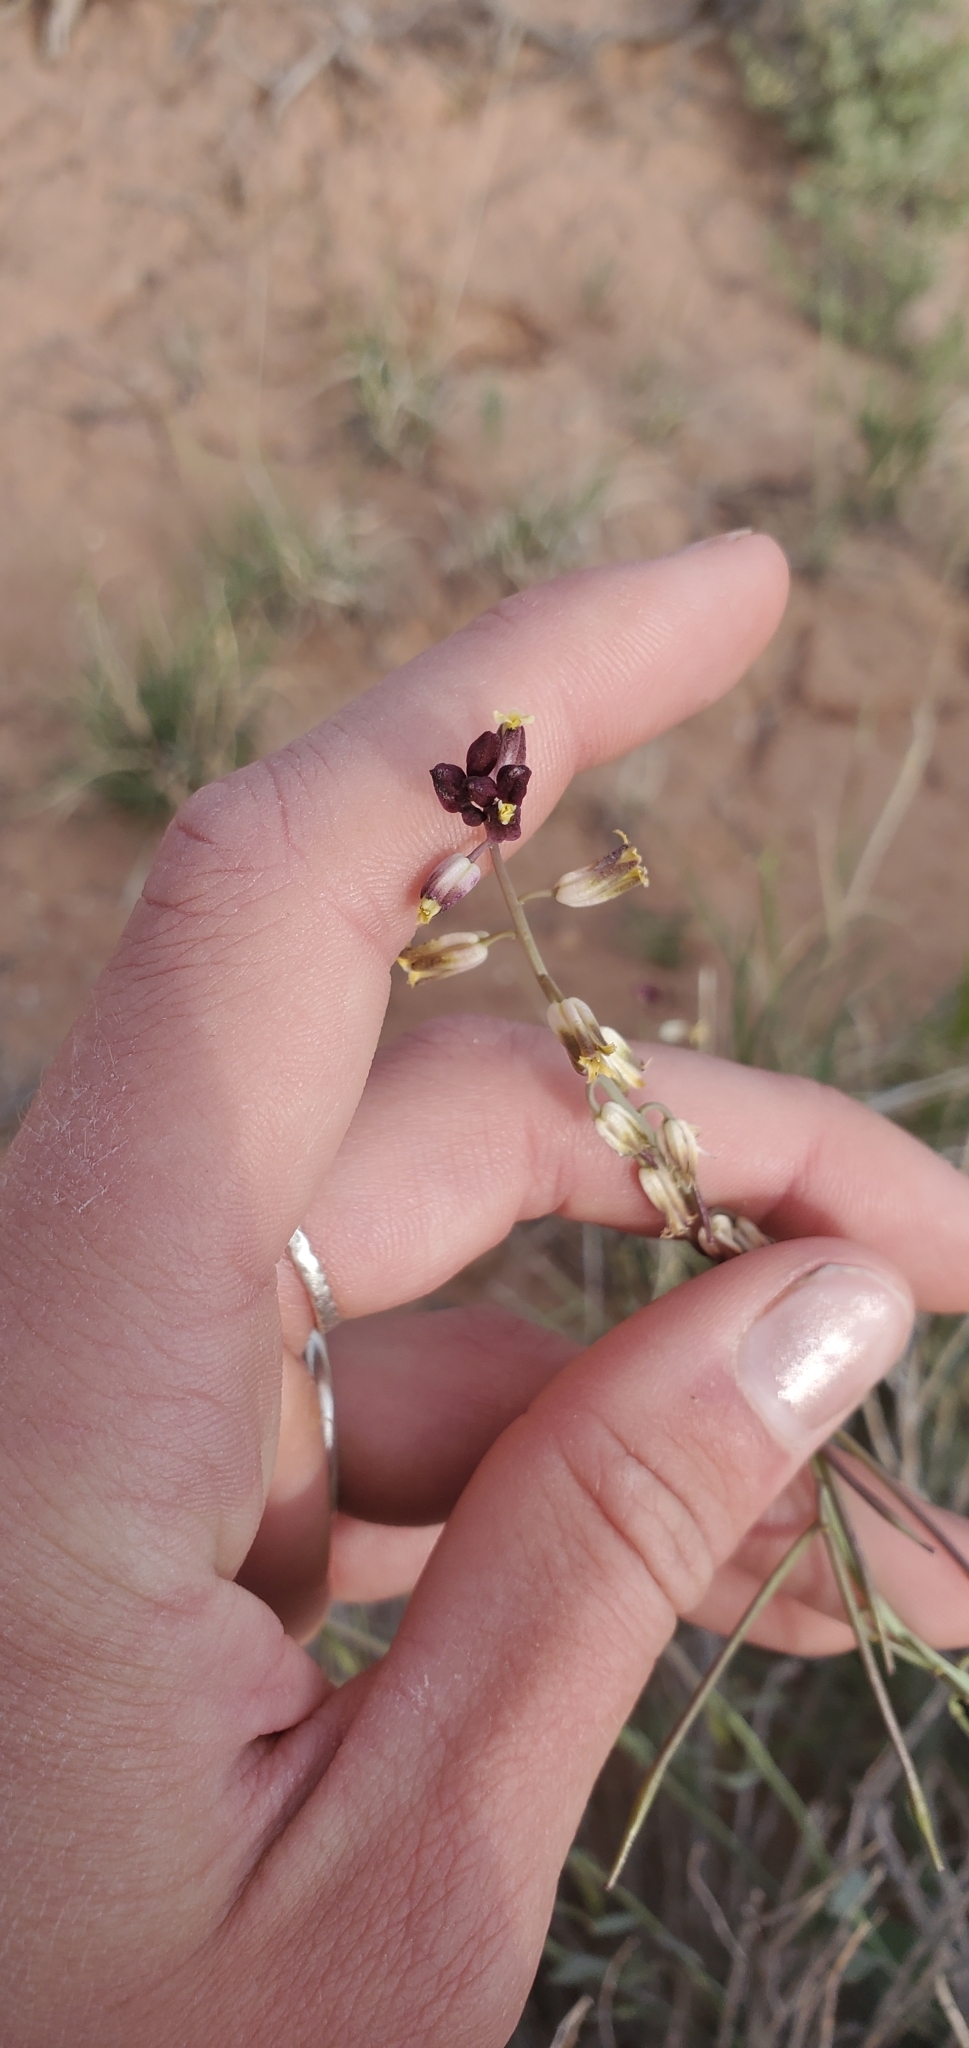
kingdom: Plantae
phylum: Tracheophyta
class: Magnoliopsida
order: Brassicales
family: Brassicaceae
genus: Streptanthus
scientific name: Streptanthus longirostris
